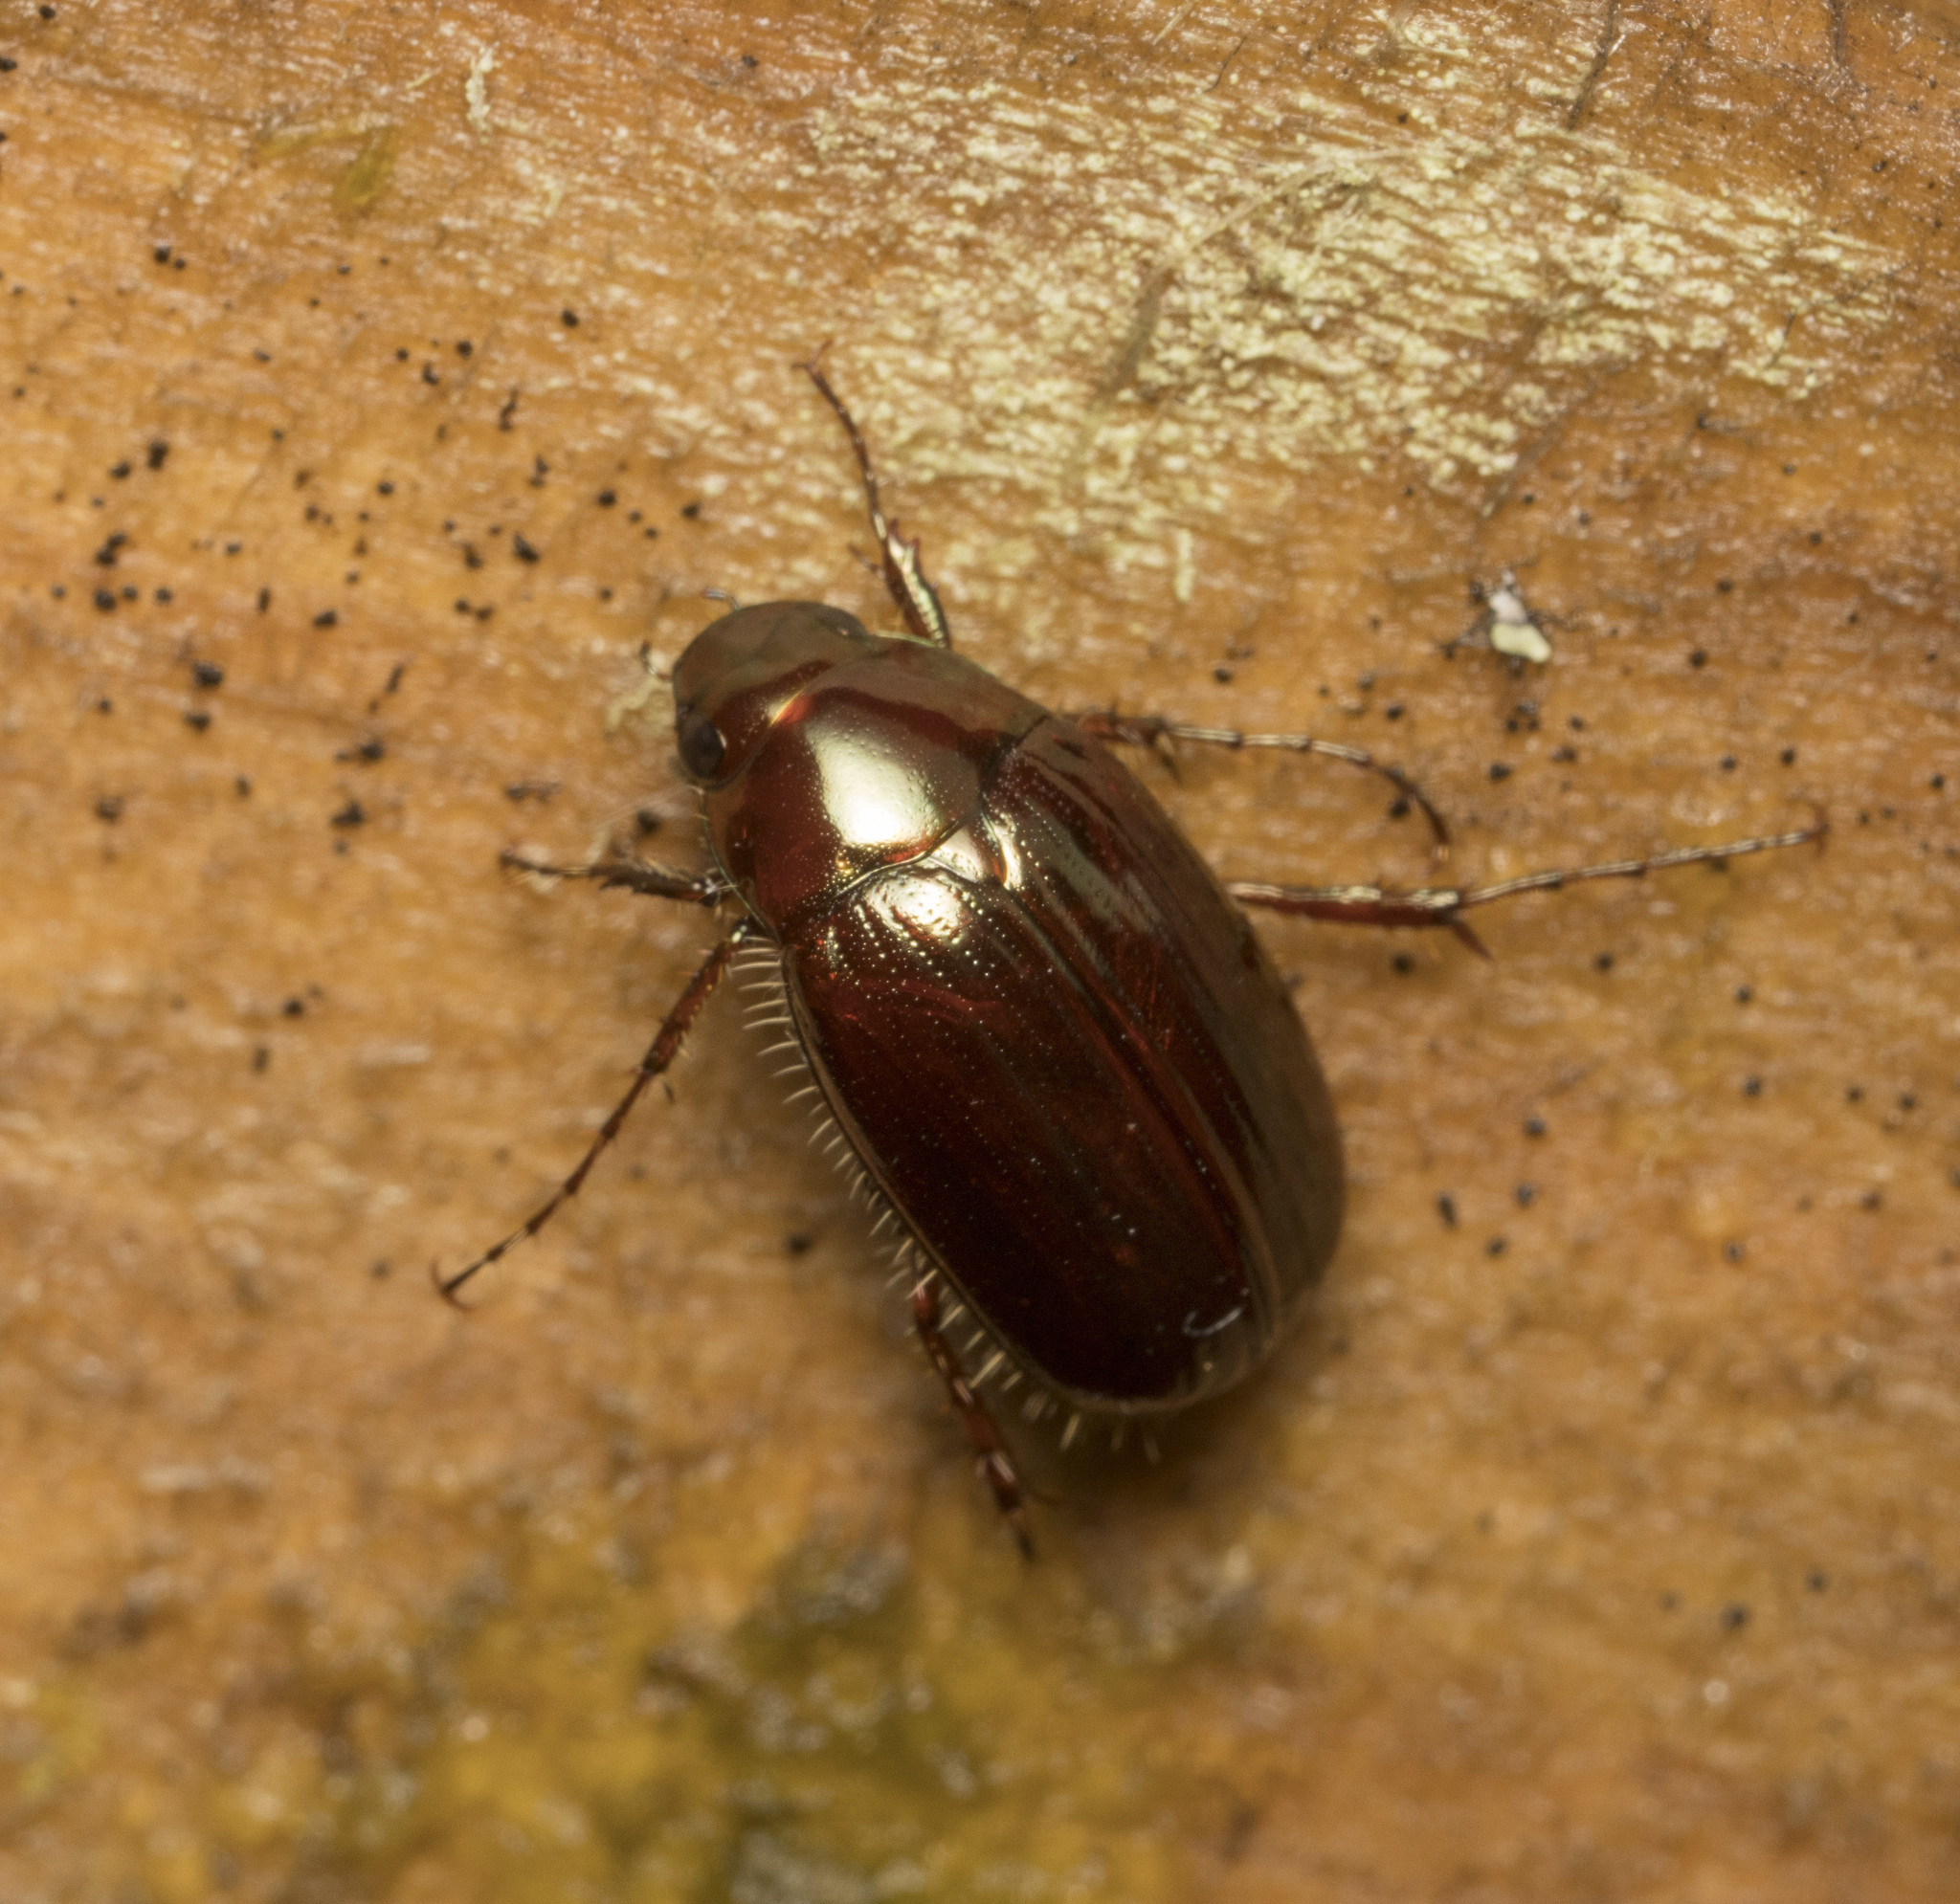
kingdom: Animalia
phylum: Arthropoda
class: Insecta
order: Coleoptera
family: Scarabaeidae
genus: Sericoides
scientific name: Sericoides viridis
